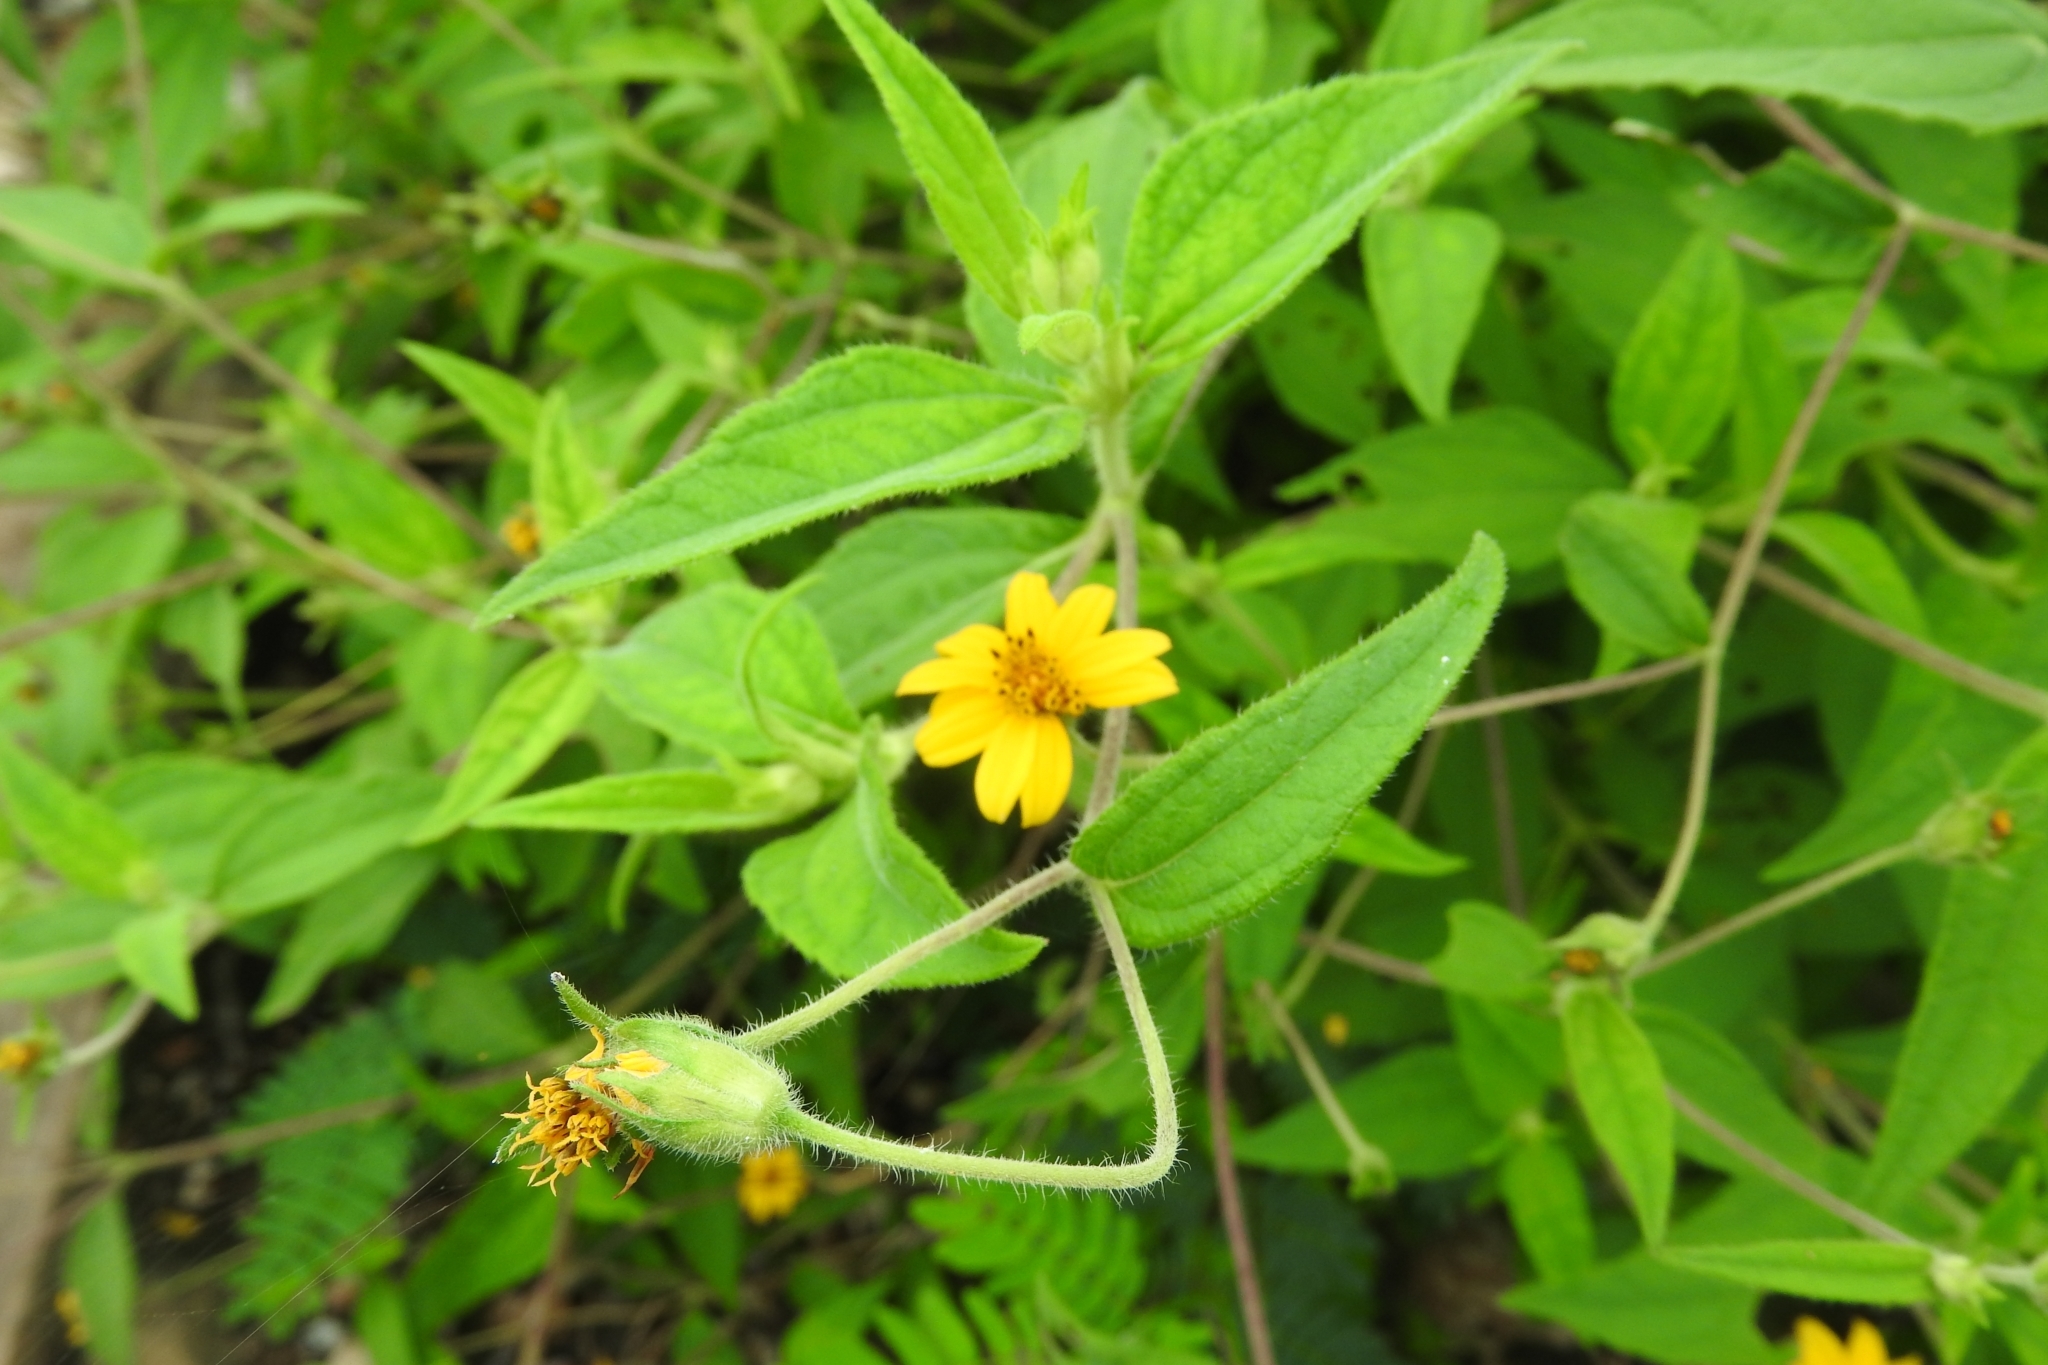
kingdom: Plantae
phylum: Tracheophyta
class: Magnoliopsida
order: Asterales
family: Asteraceae
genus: Melampodium
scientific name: Melampodium divaricatum
